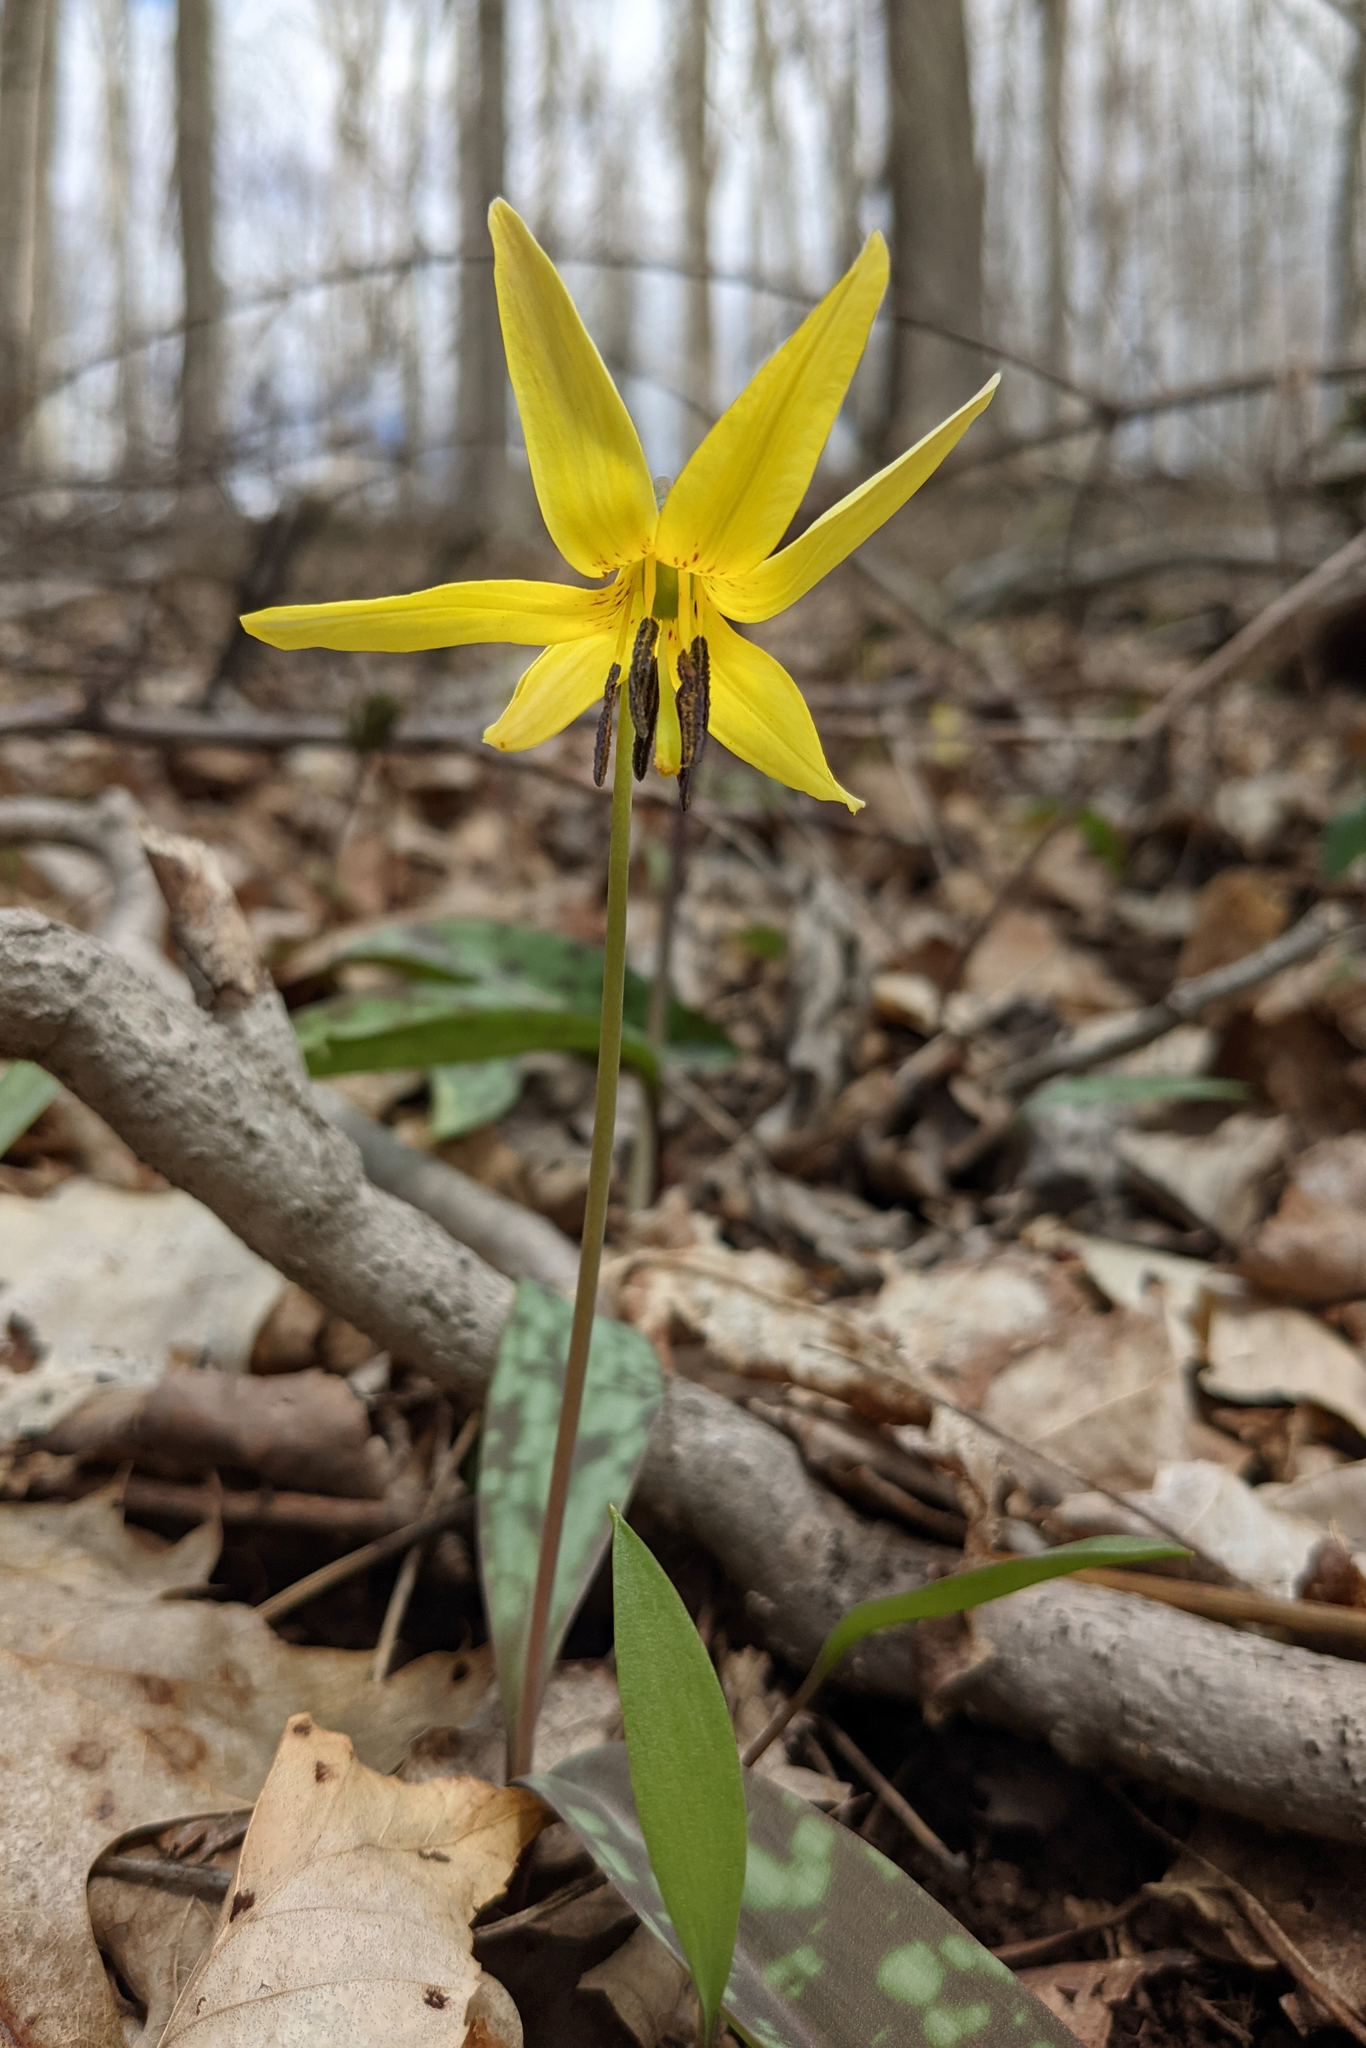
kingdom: Plantae
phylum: Tracheophyta
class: Liliopsida
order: Liliales
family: Liliaceae
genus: Erythronium
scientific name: Erythronium americanum
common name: Yellow adder's-tongue
